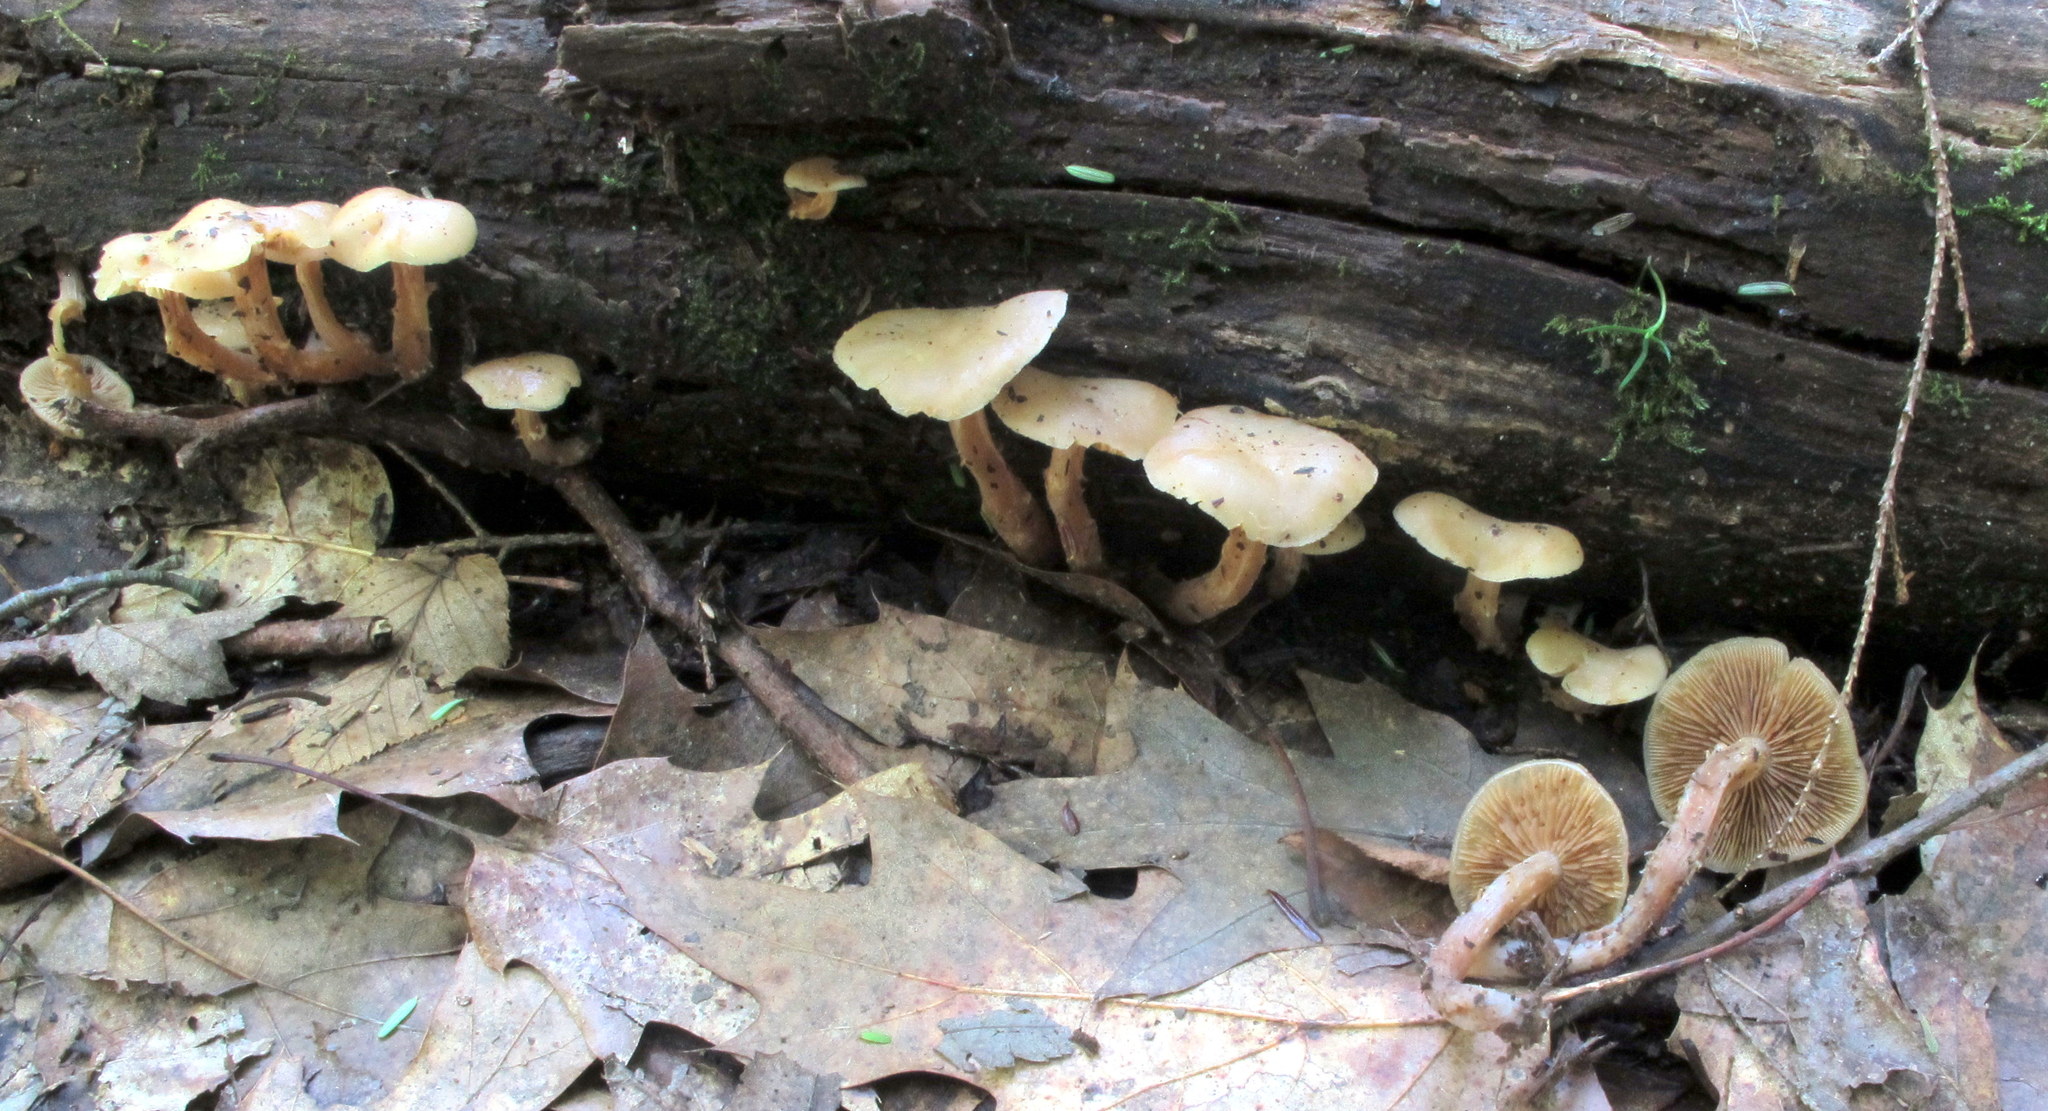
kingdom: Fungi
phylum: Basidiomycota
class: Agaricomycetes
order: Agaricales
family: Strophariaceae
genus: Kuehneromyces
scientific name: Kuehneromyces marginellus
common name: Sheathed woodtuft
